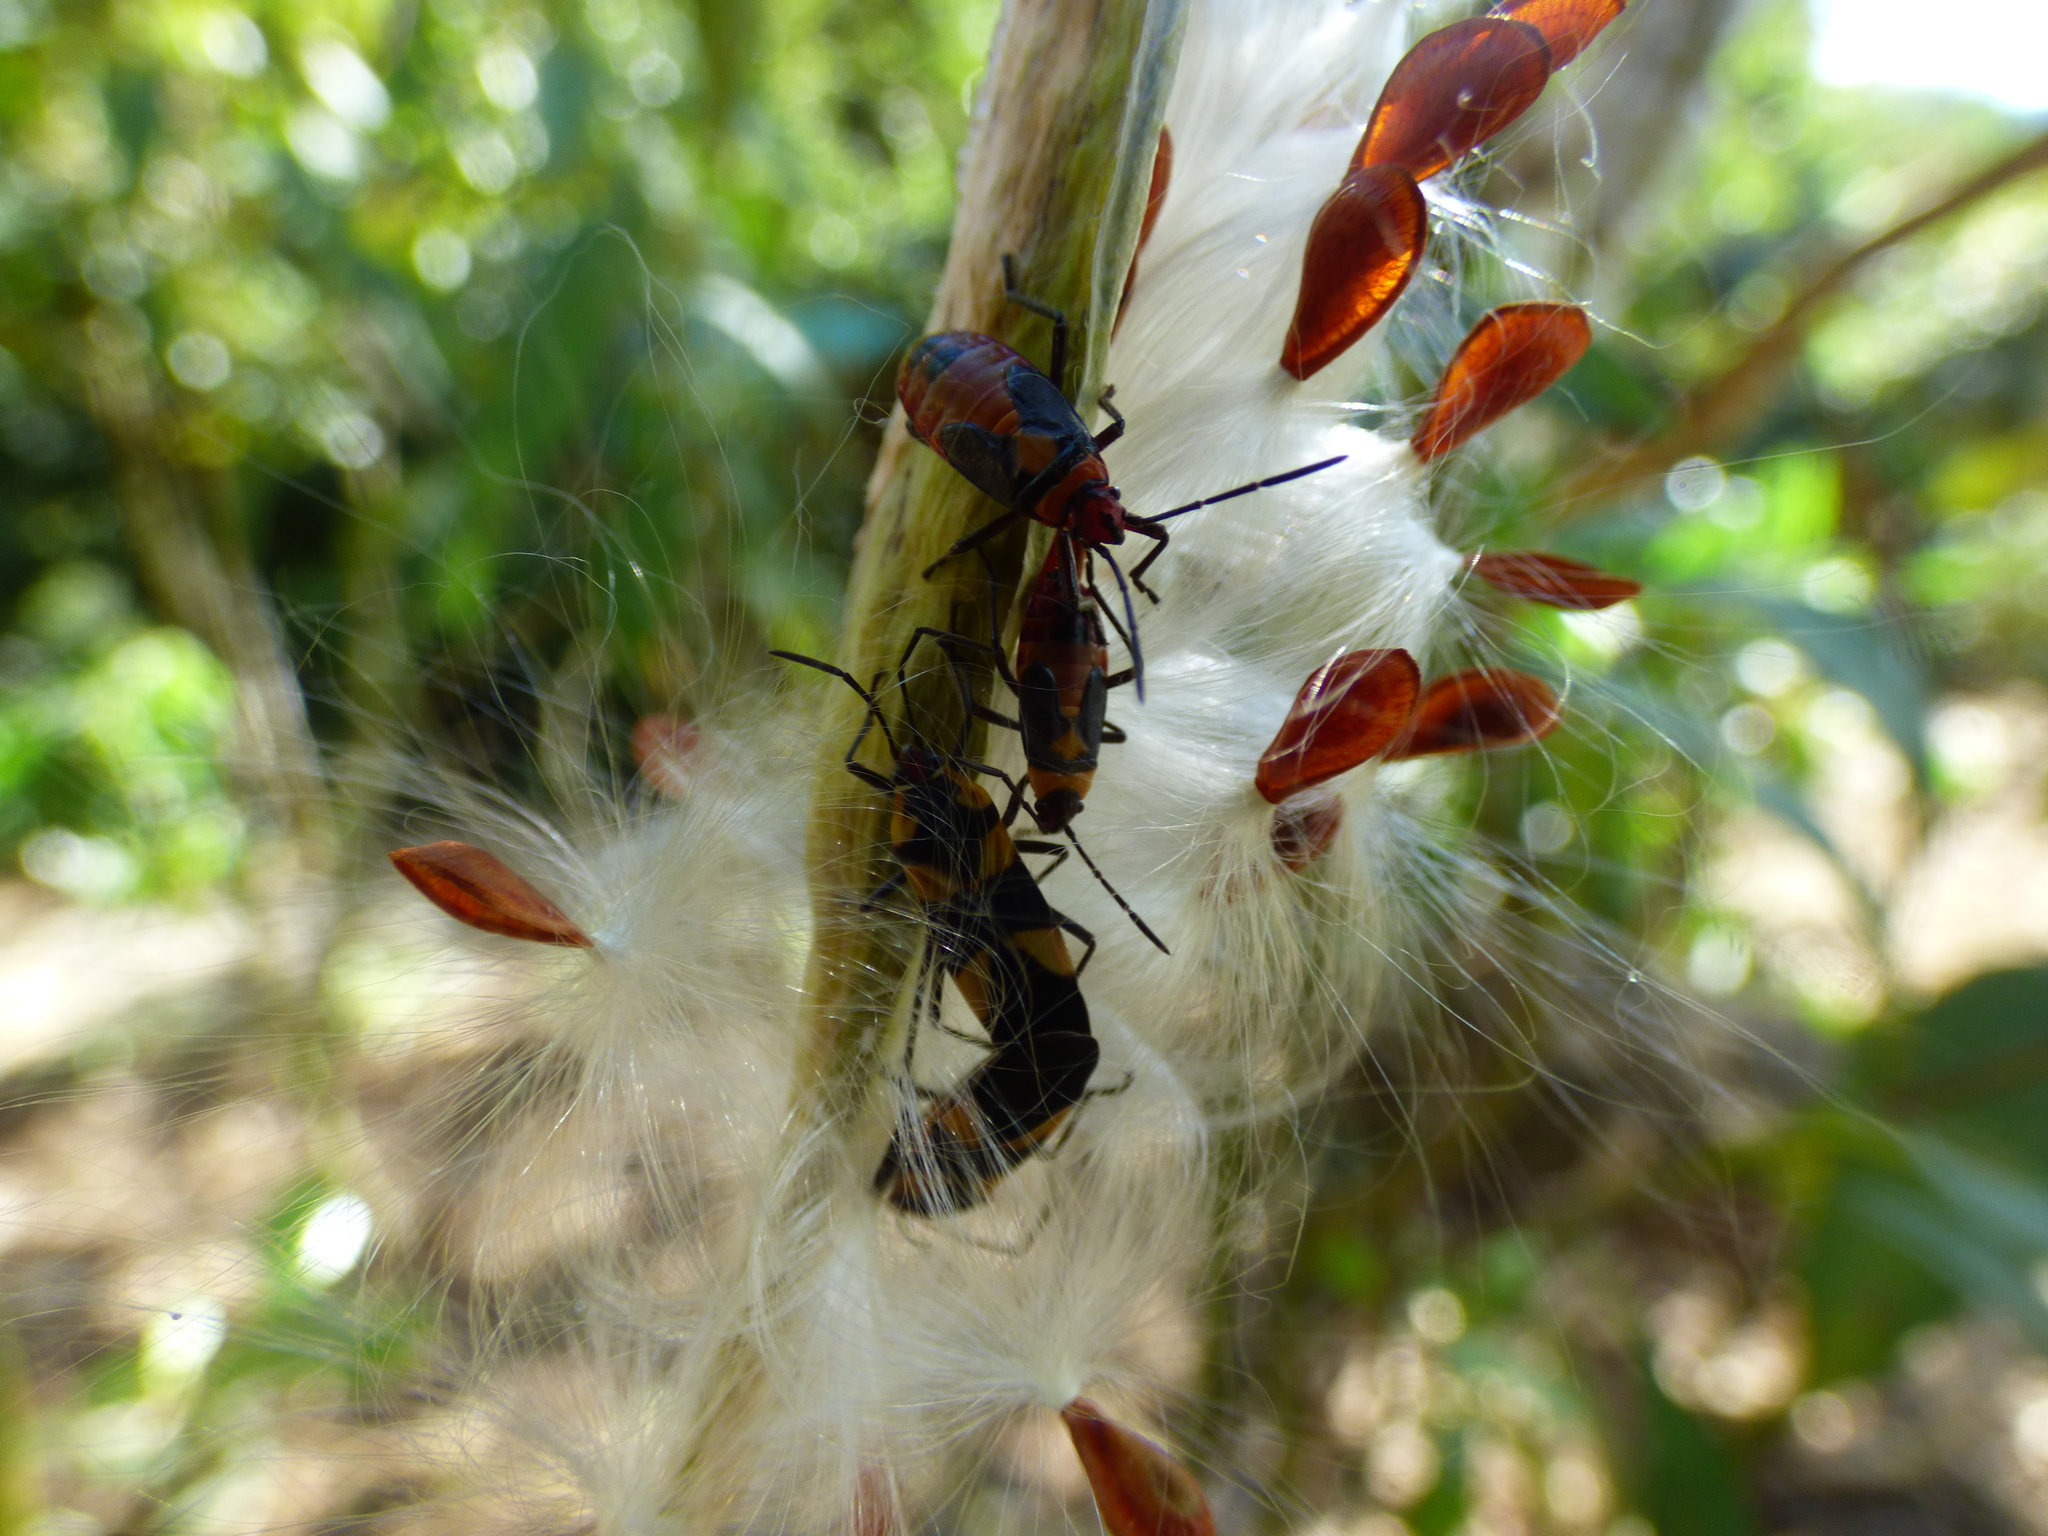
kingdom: Animalia
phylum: Arthropoda
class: Insecta
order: Hemiptera
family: Lygaeidae
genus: Oncopeltus
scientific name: Oncopeltus cingulifer
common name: Lygaeid bug
